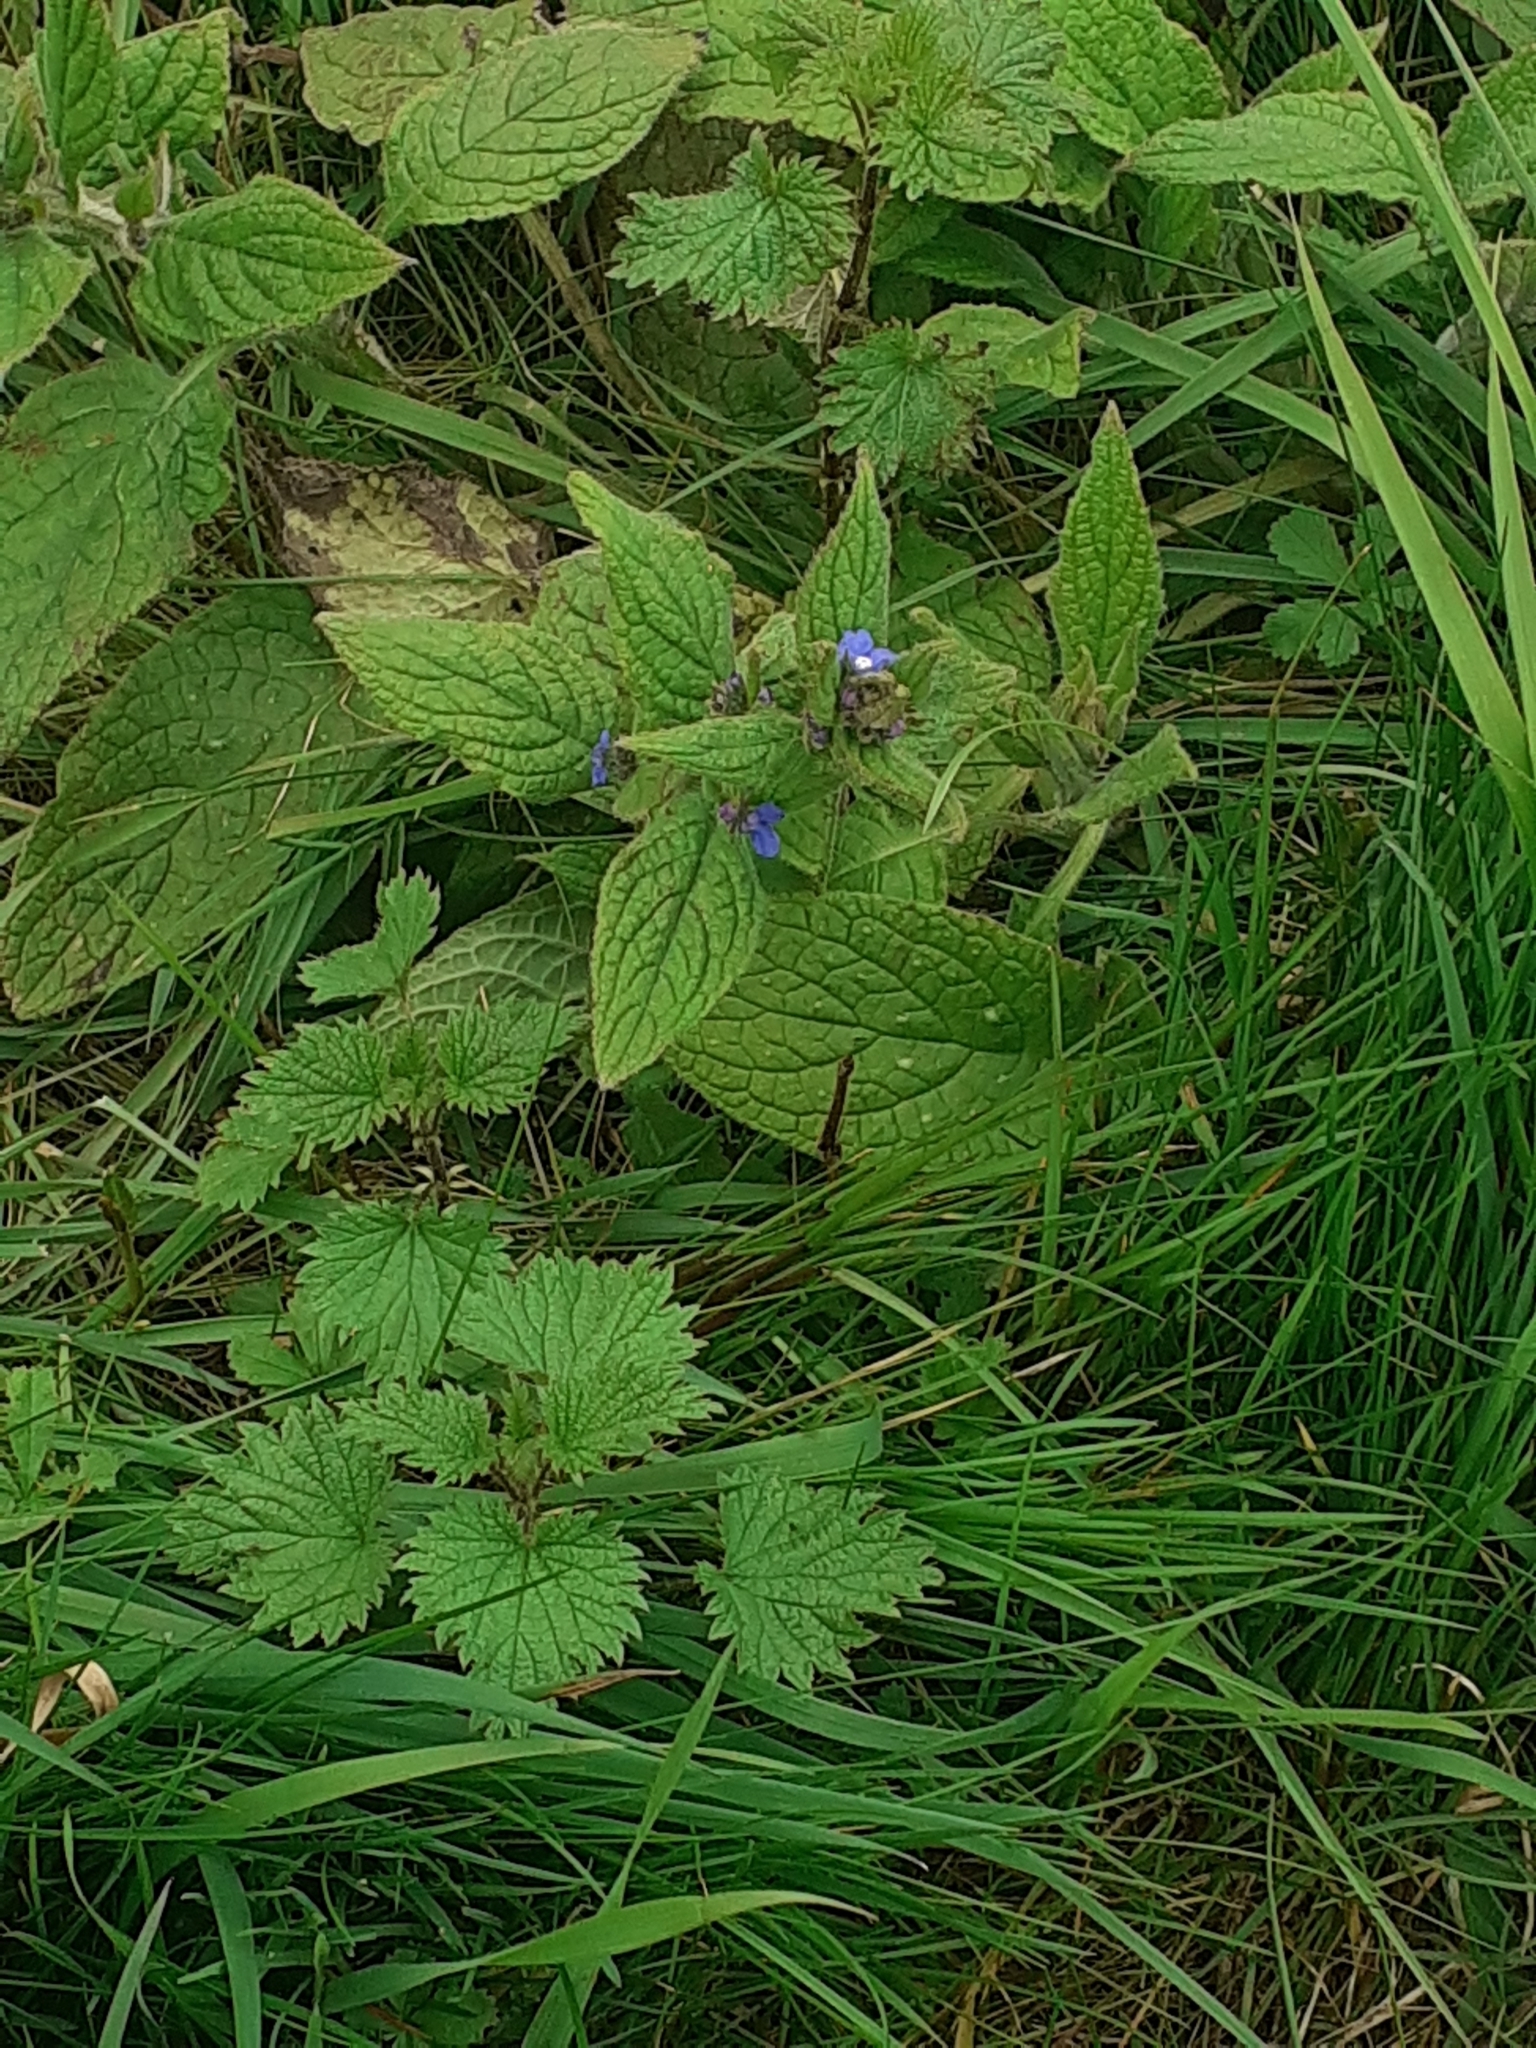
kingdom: Plantae
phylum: Tracheophyta
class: Magnoliopsida
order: Boraginales
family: Boraginaceae
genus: Pentaglottis
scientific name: Pentaglottis sempervirens
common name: Green alkanet
